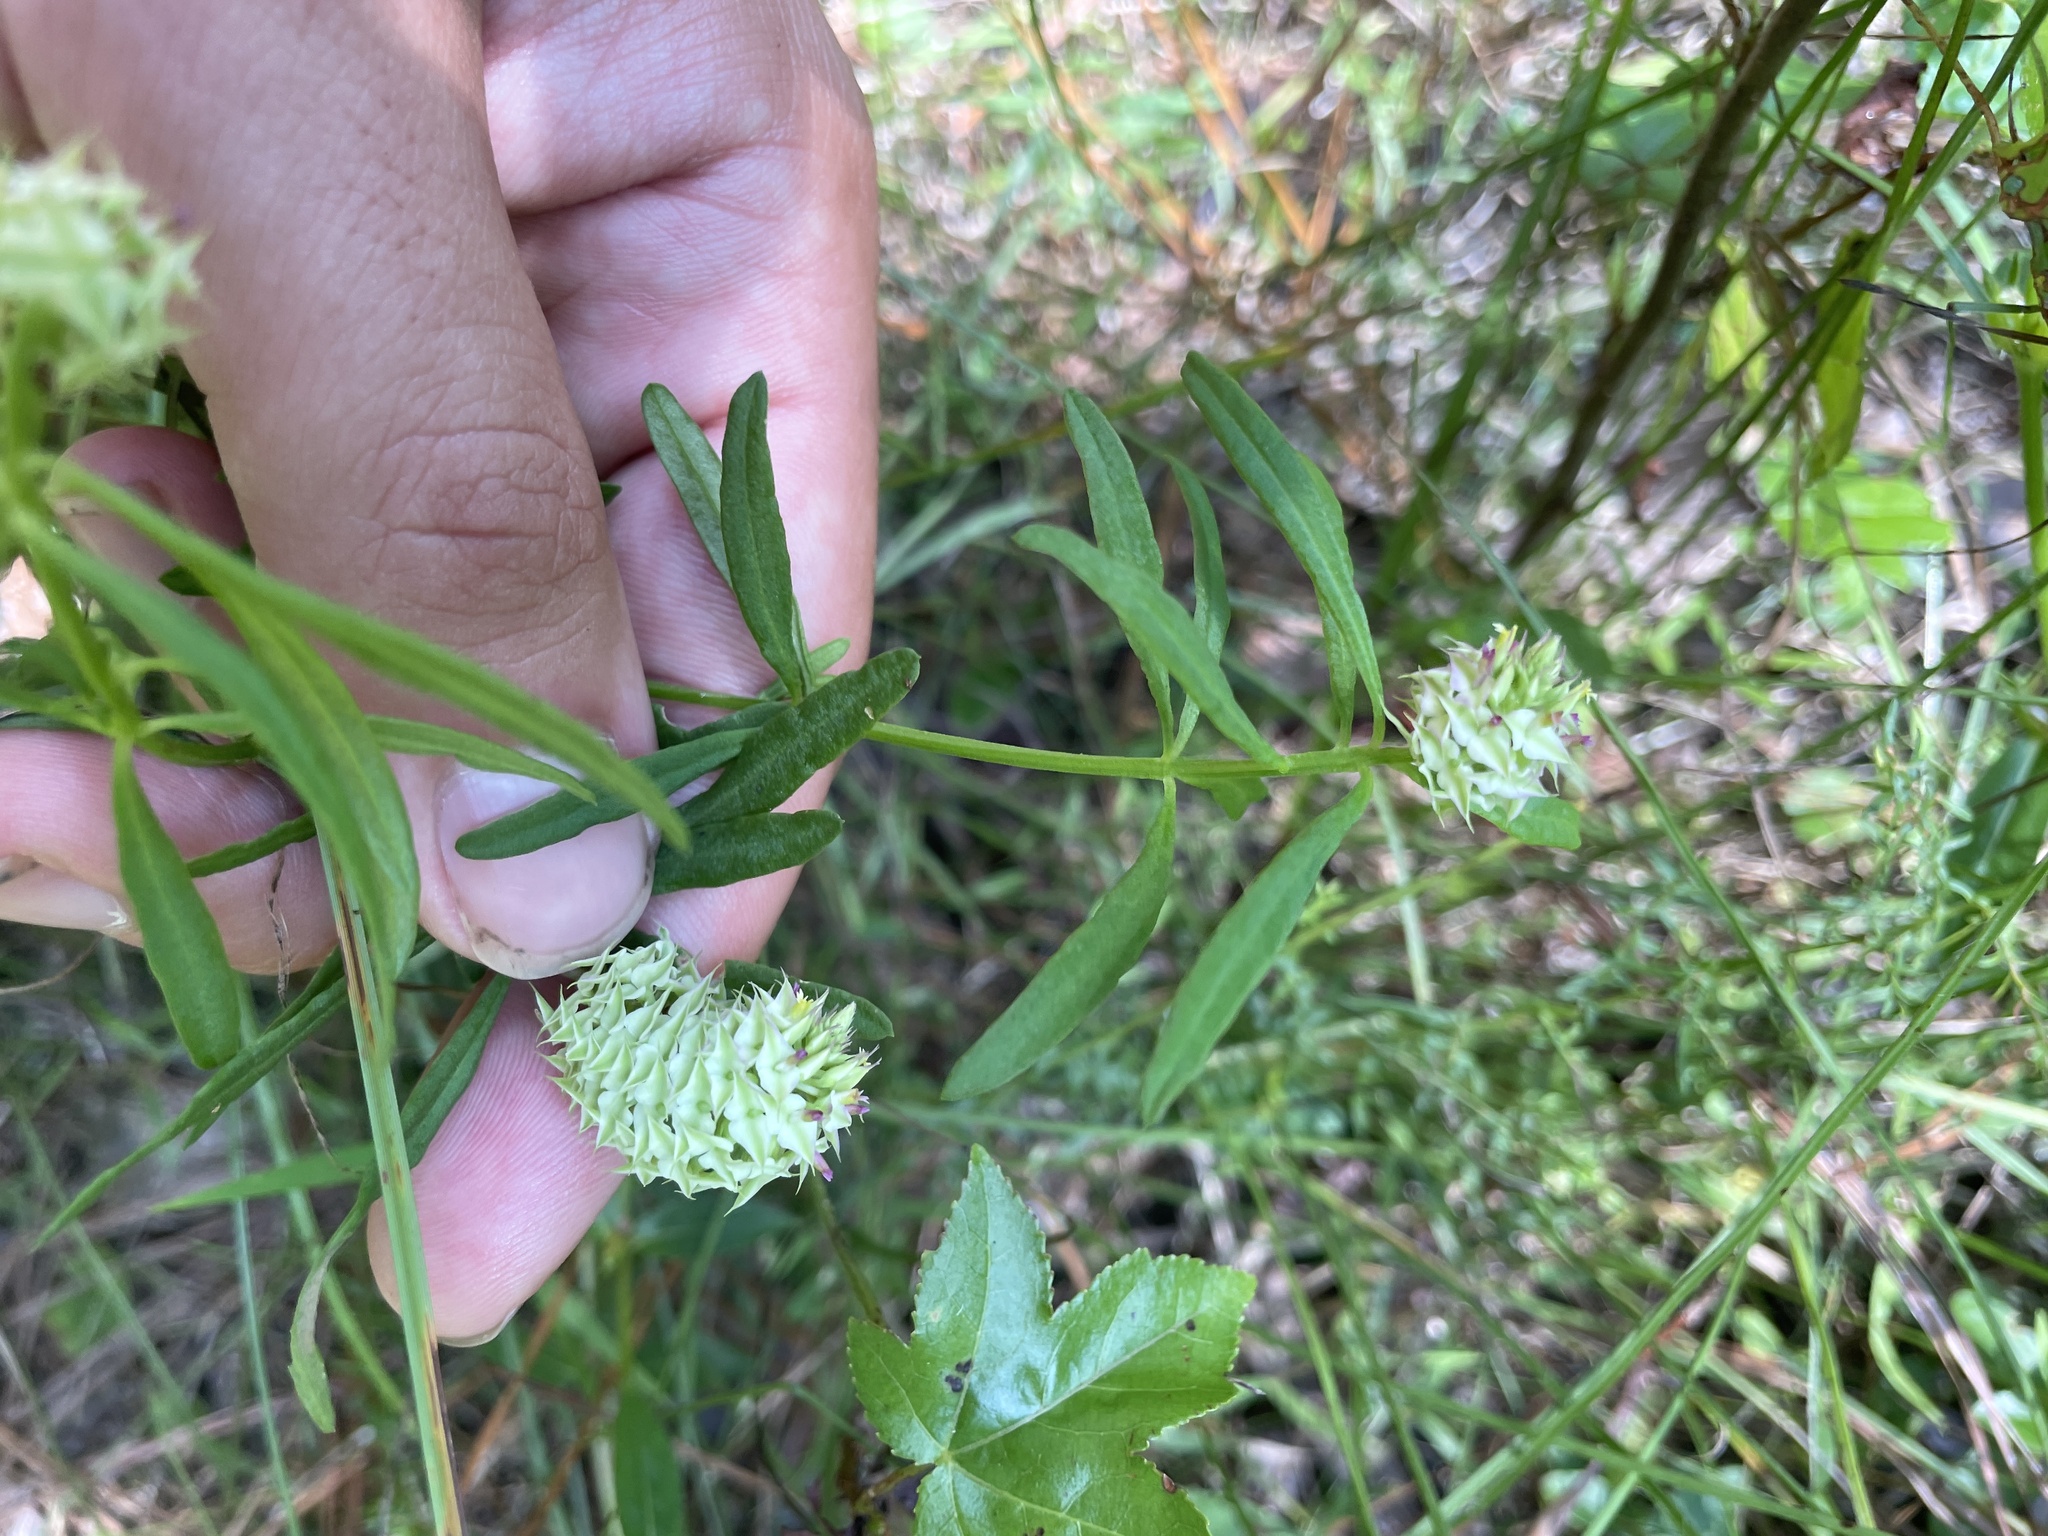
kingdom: Plantae
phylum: Tracheophyta
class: Magnoliopsida
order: Fabales
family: Polygalaceae
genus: Polygala
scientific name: Polygala cruciata
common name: Drumheads
